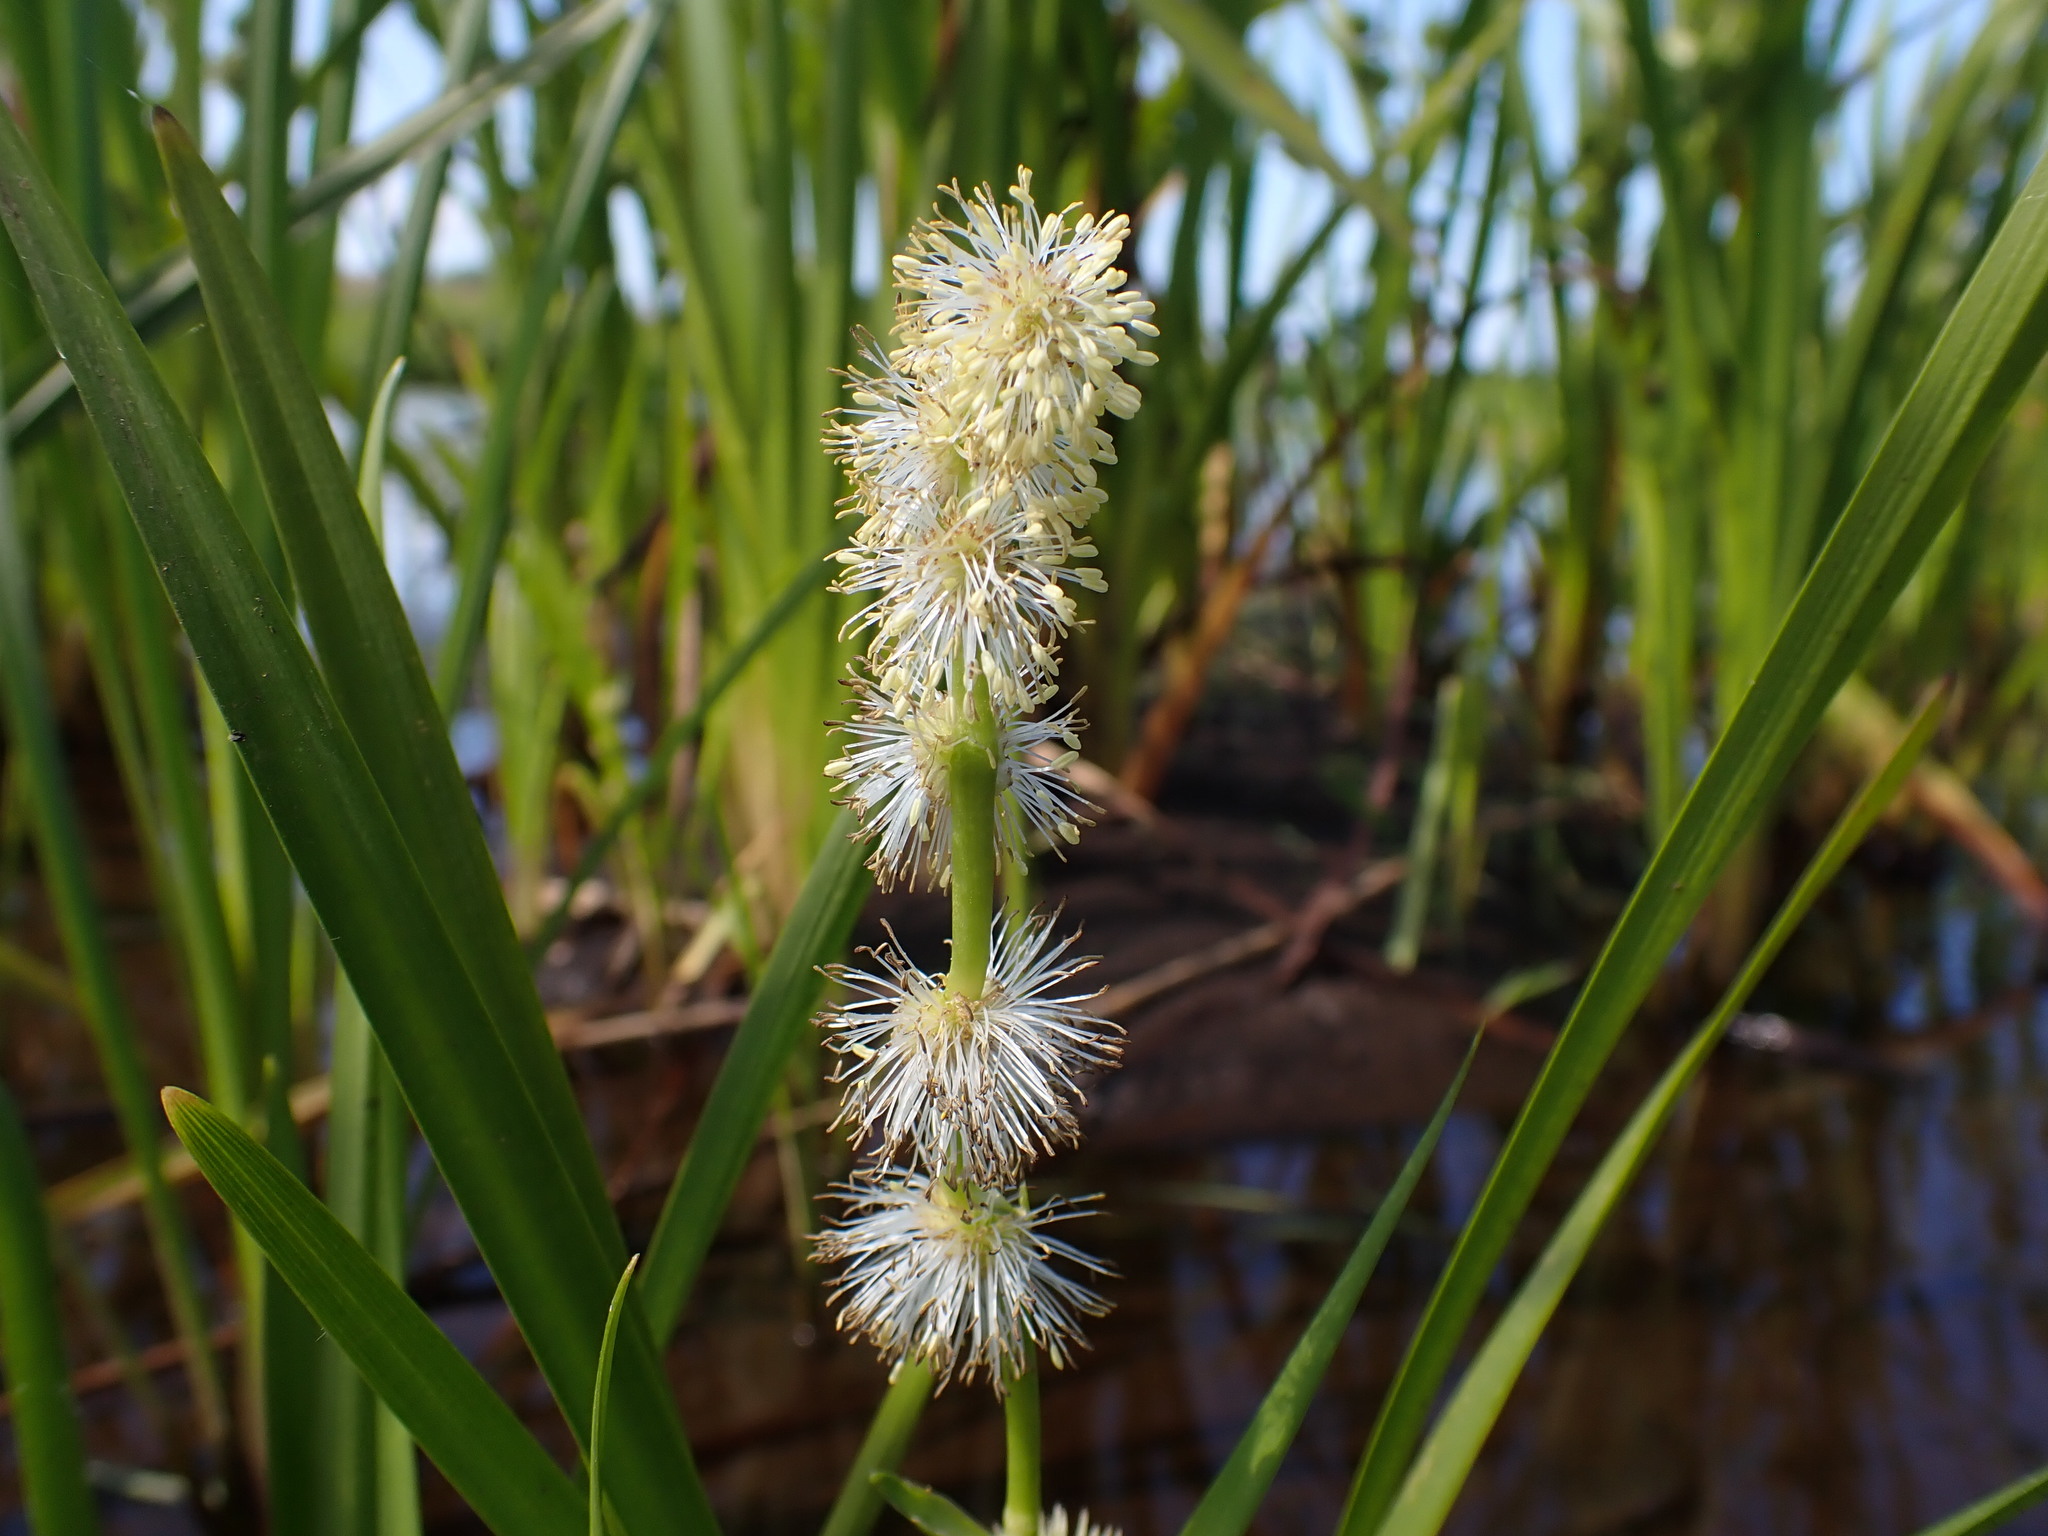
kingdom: Plantae
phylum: Tracheophyta
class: Liliopsida
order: Poales
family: Typhaceae
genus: Sparganium
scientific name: Sparganium emersum
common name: Unbranched bur-reed
